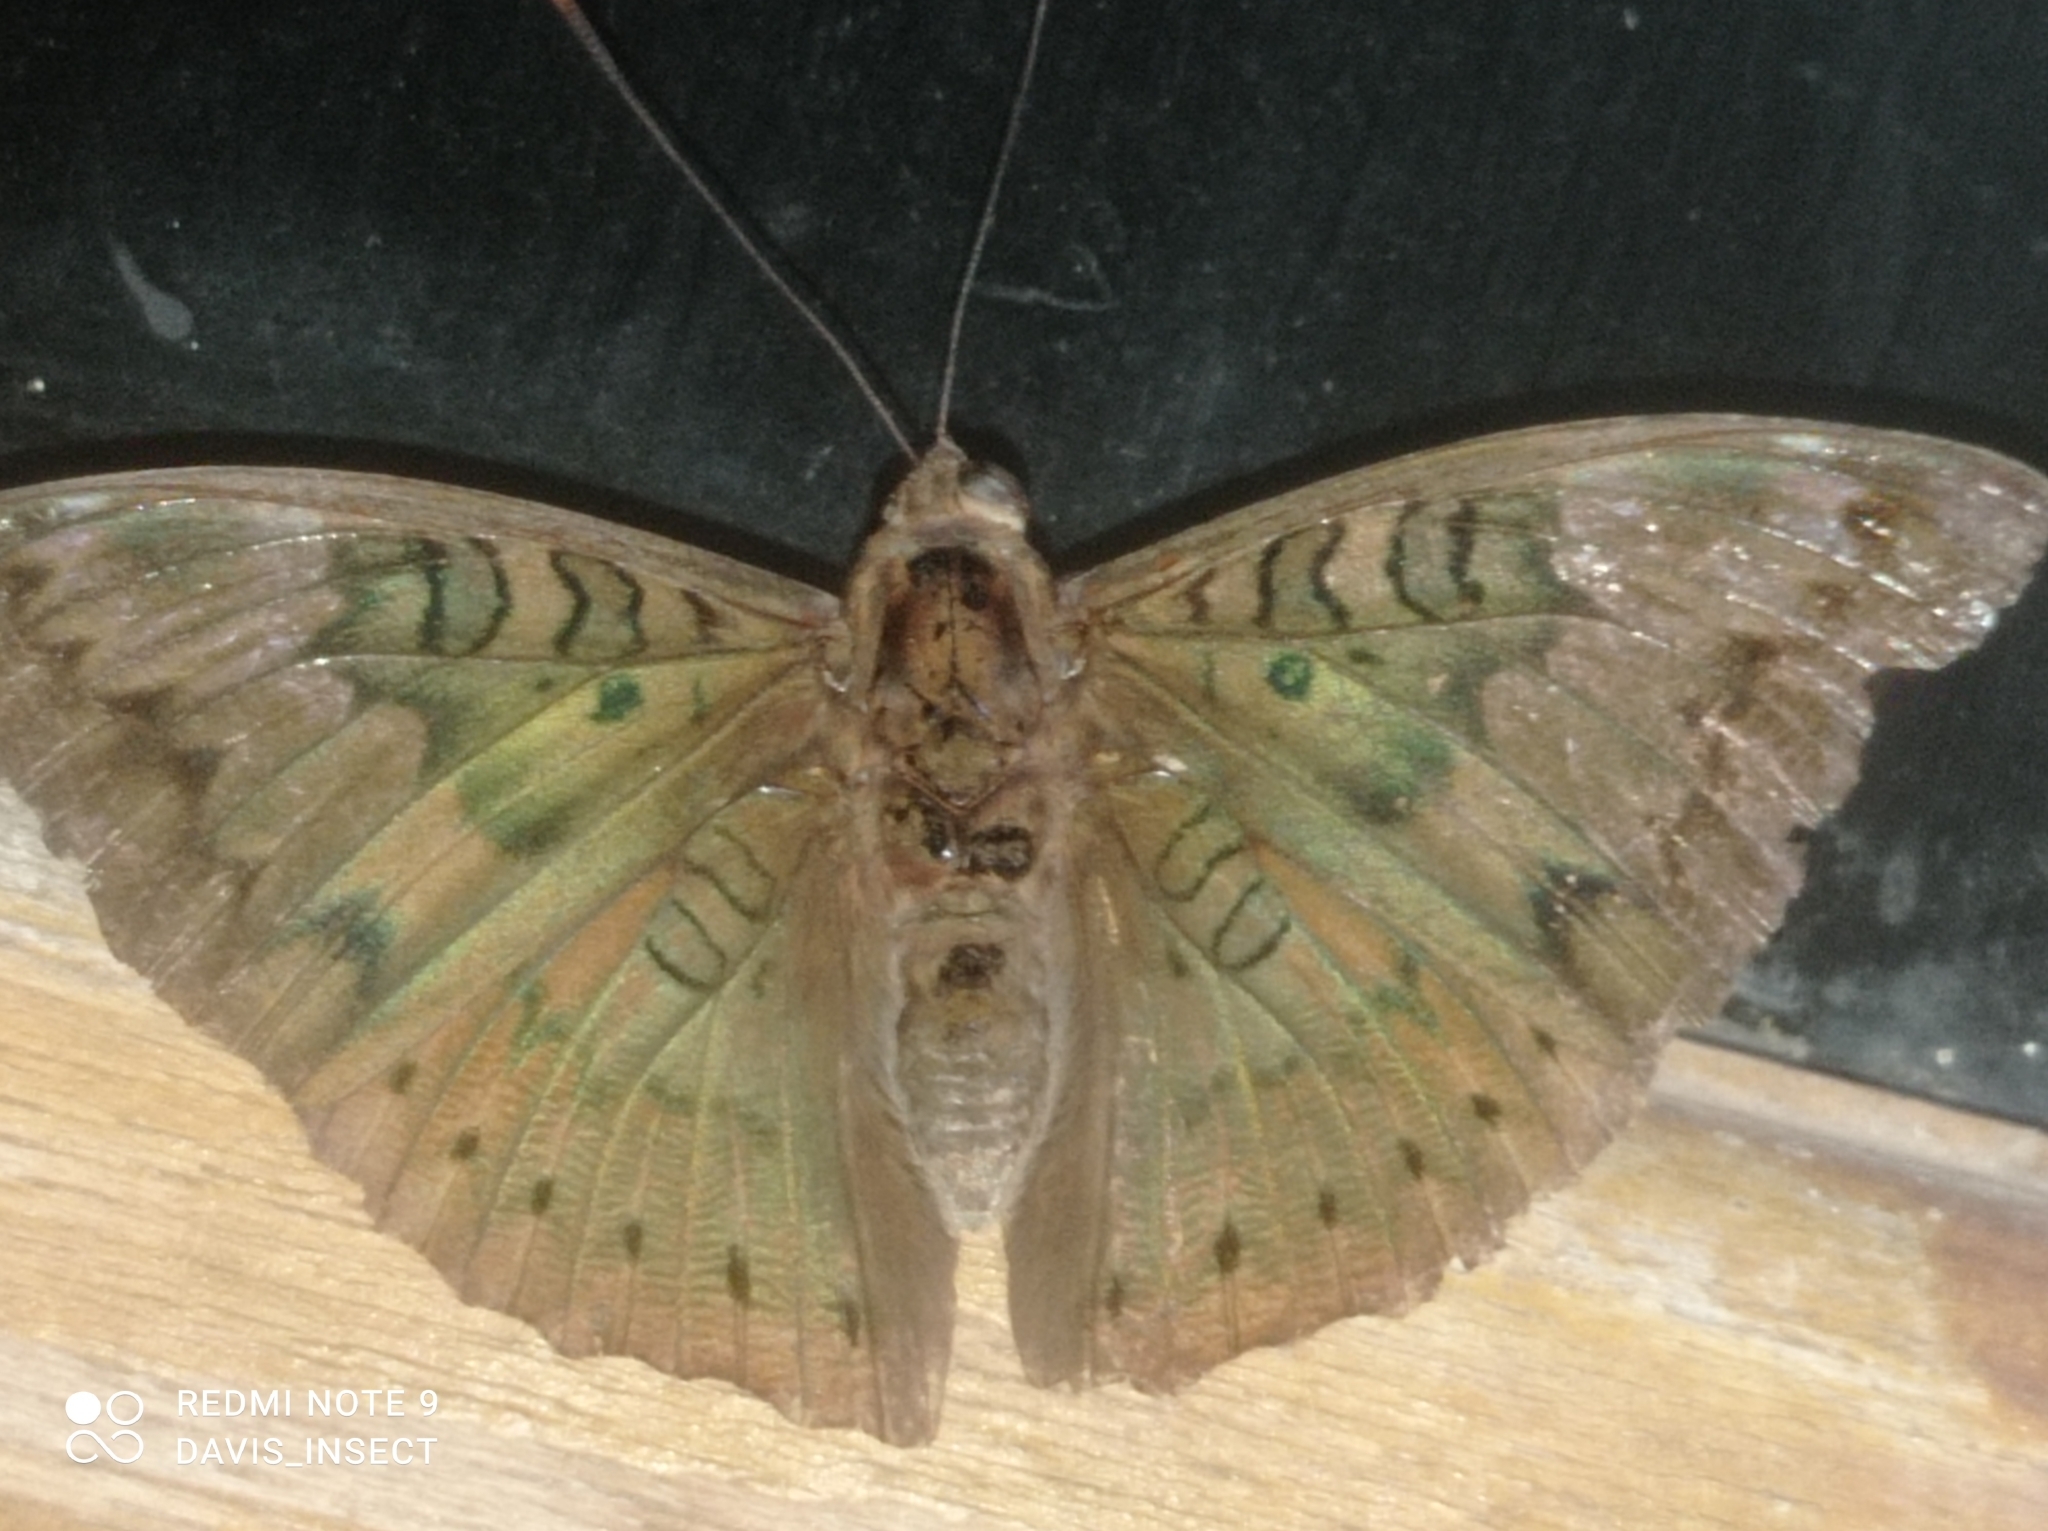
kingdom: Animalia
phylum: Arthropoda
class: Insecta
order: Lepidoptera
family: Nymphalidae
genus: Euthalia
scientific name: Euthalia aconthea
